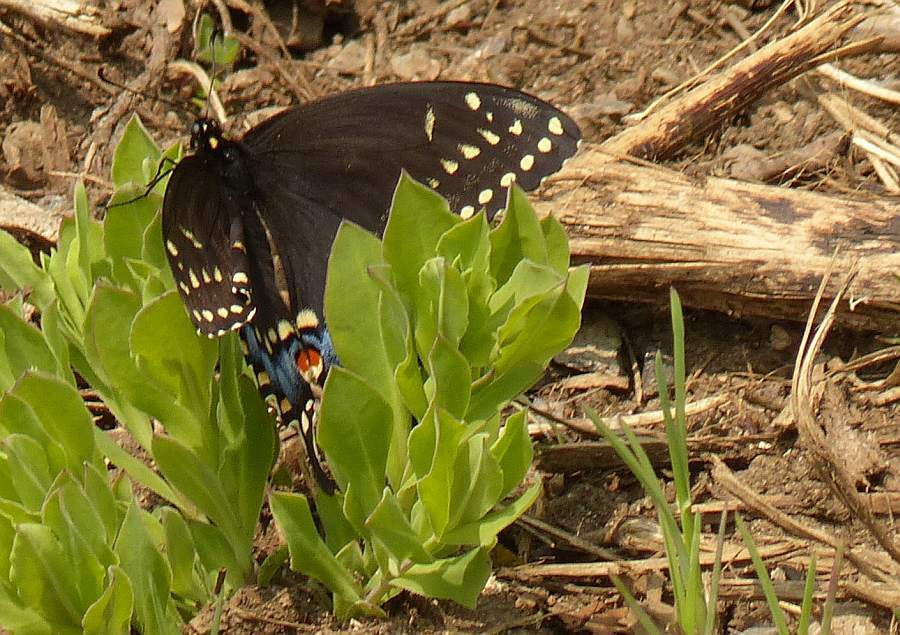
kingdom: Animalia
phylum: Arthropoda
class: Insecta
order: Lepidoptera
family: Papilionidae
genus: Papilio
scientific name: Papilio polyxenes
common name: Black swallowtail
